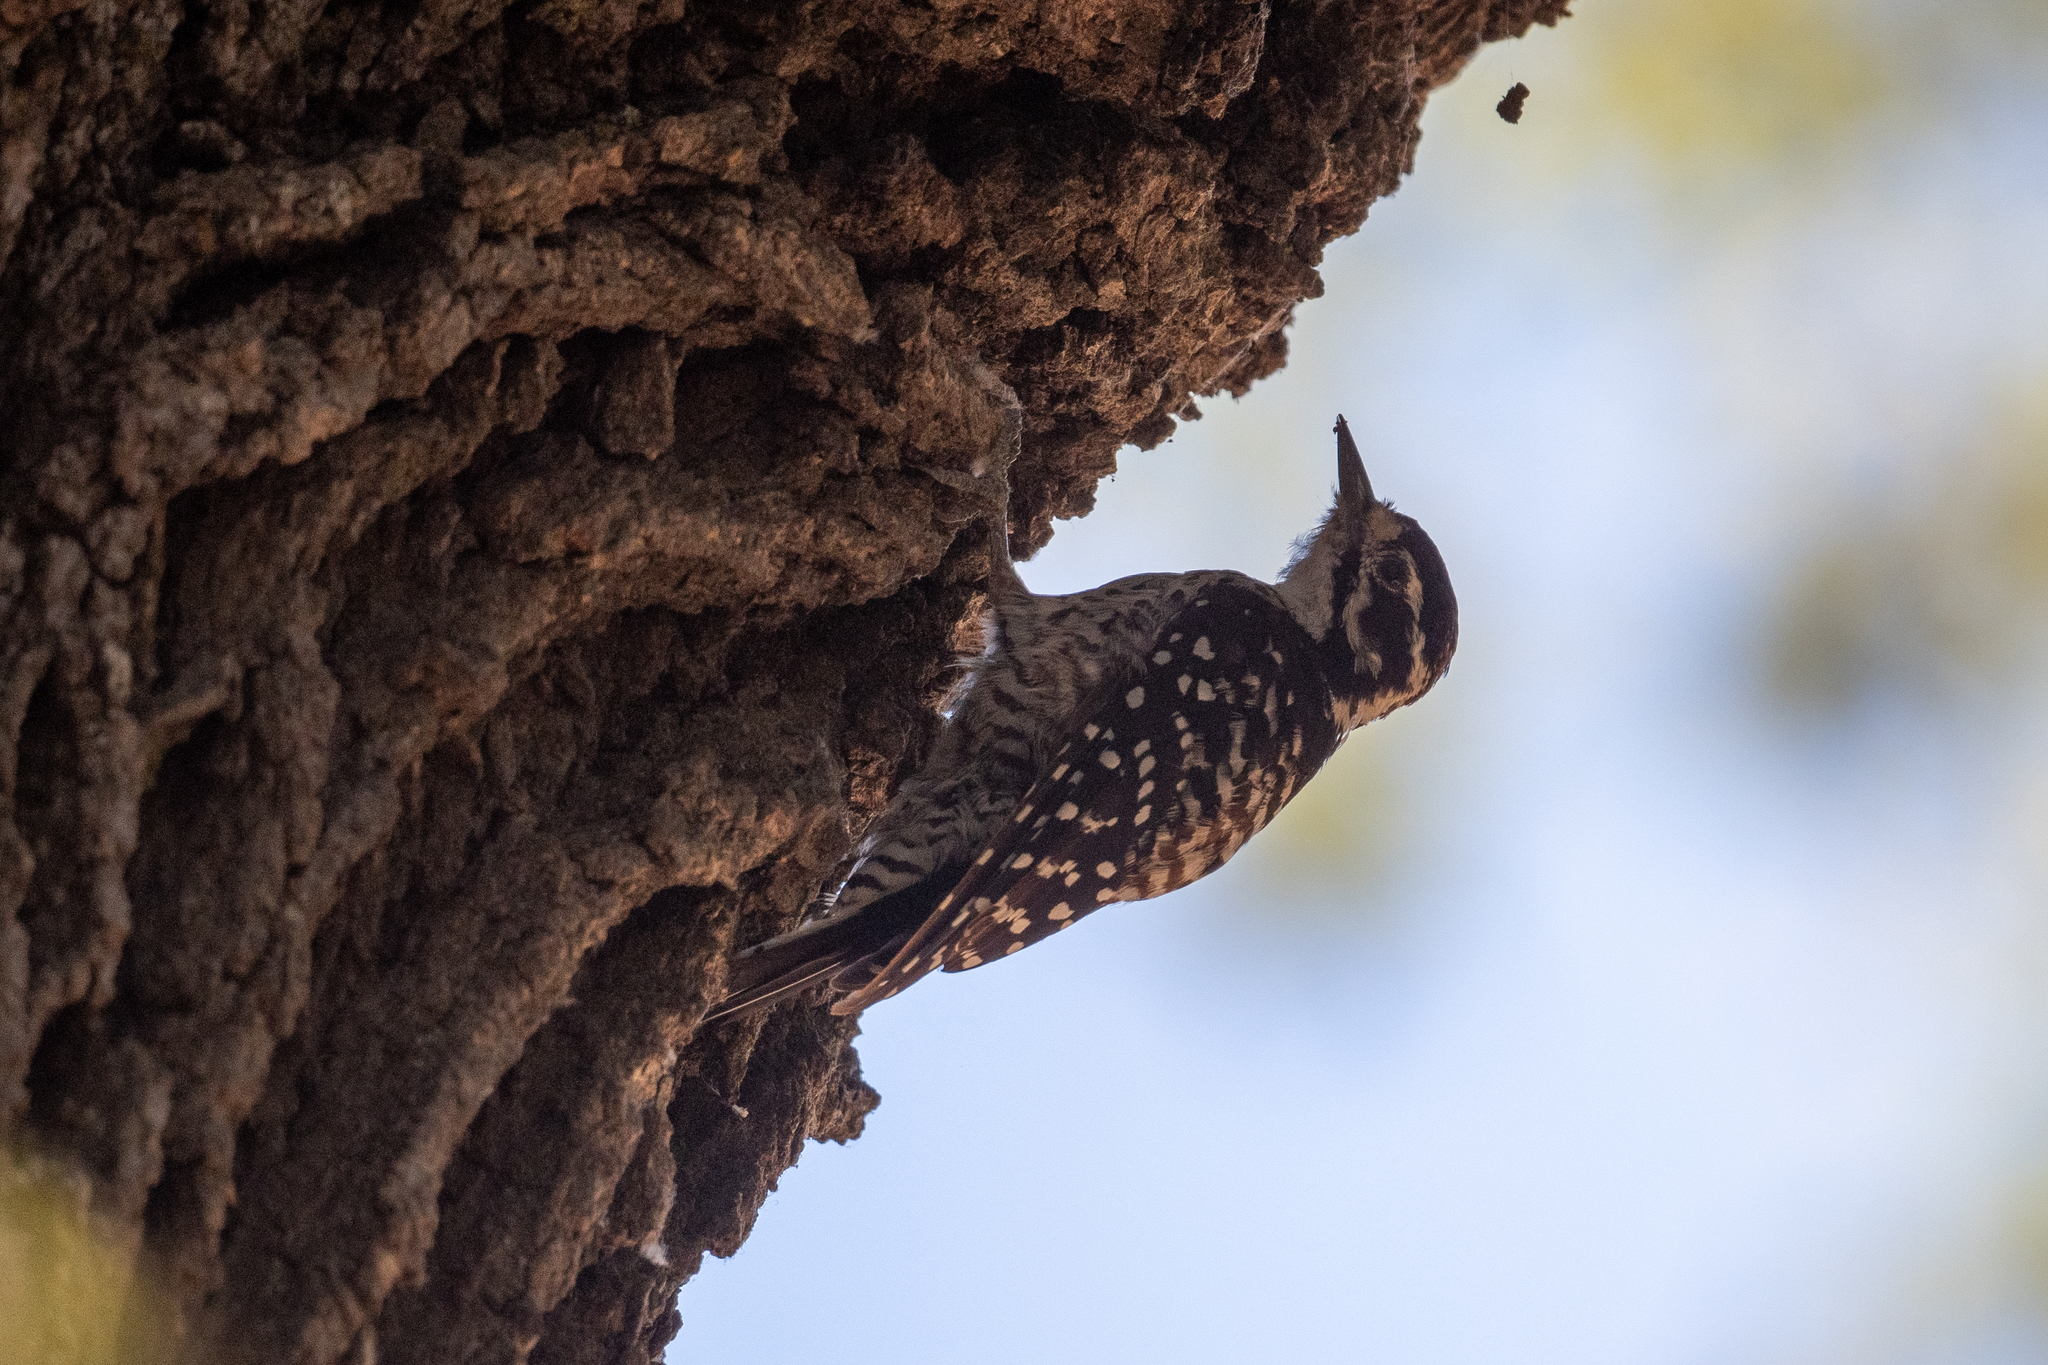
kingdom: Animalia
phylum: Chordata
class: Aves
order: Piciformes
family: Picidae
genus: Dryobates
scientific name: Dryobates nuttallii
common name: Nuttall's woodpecker
